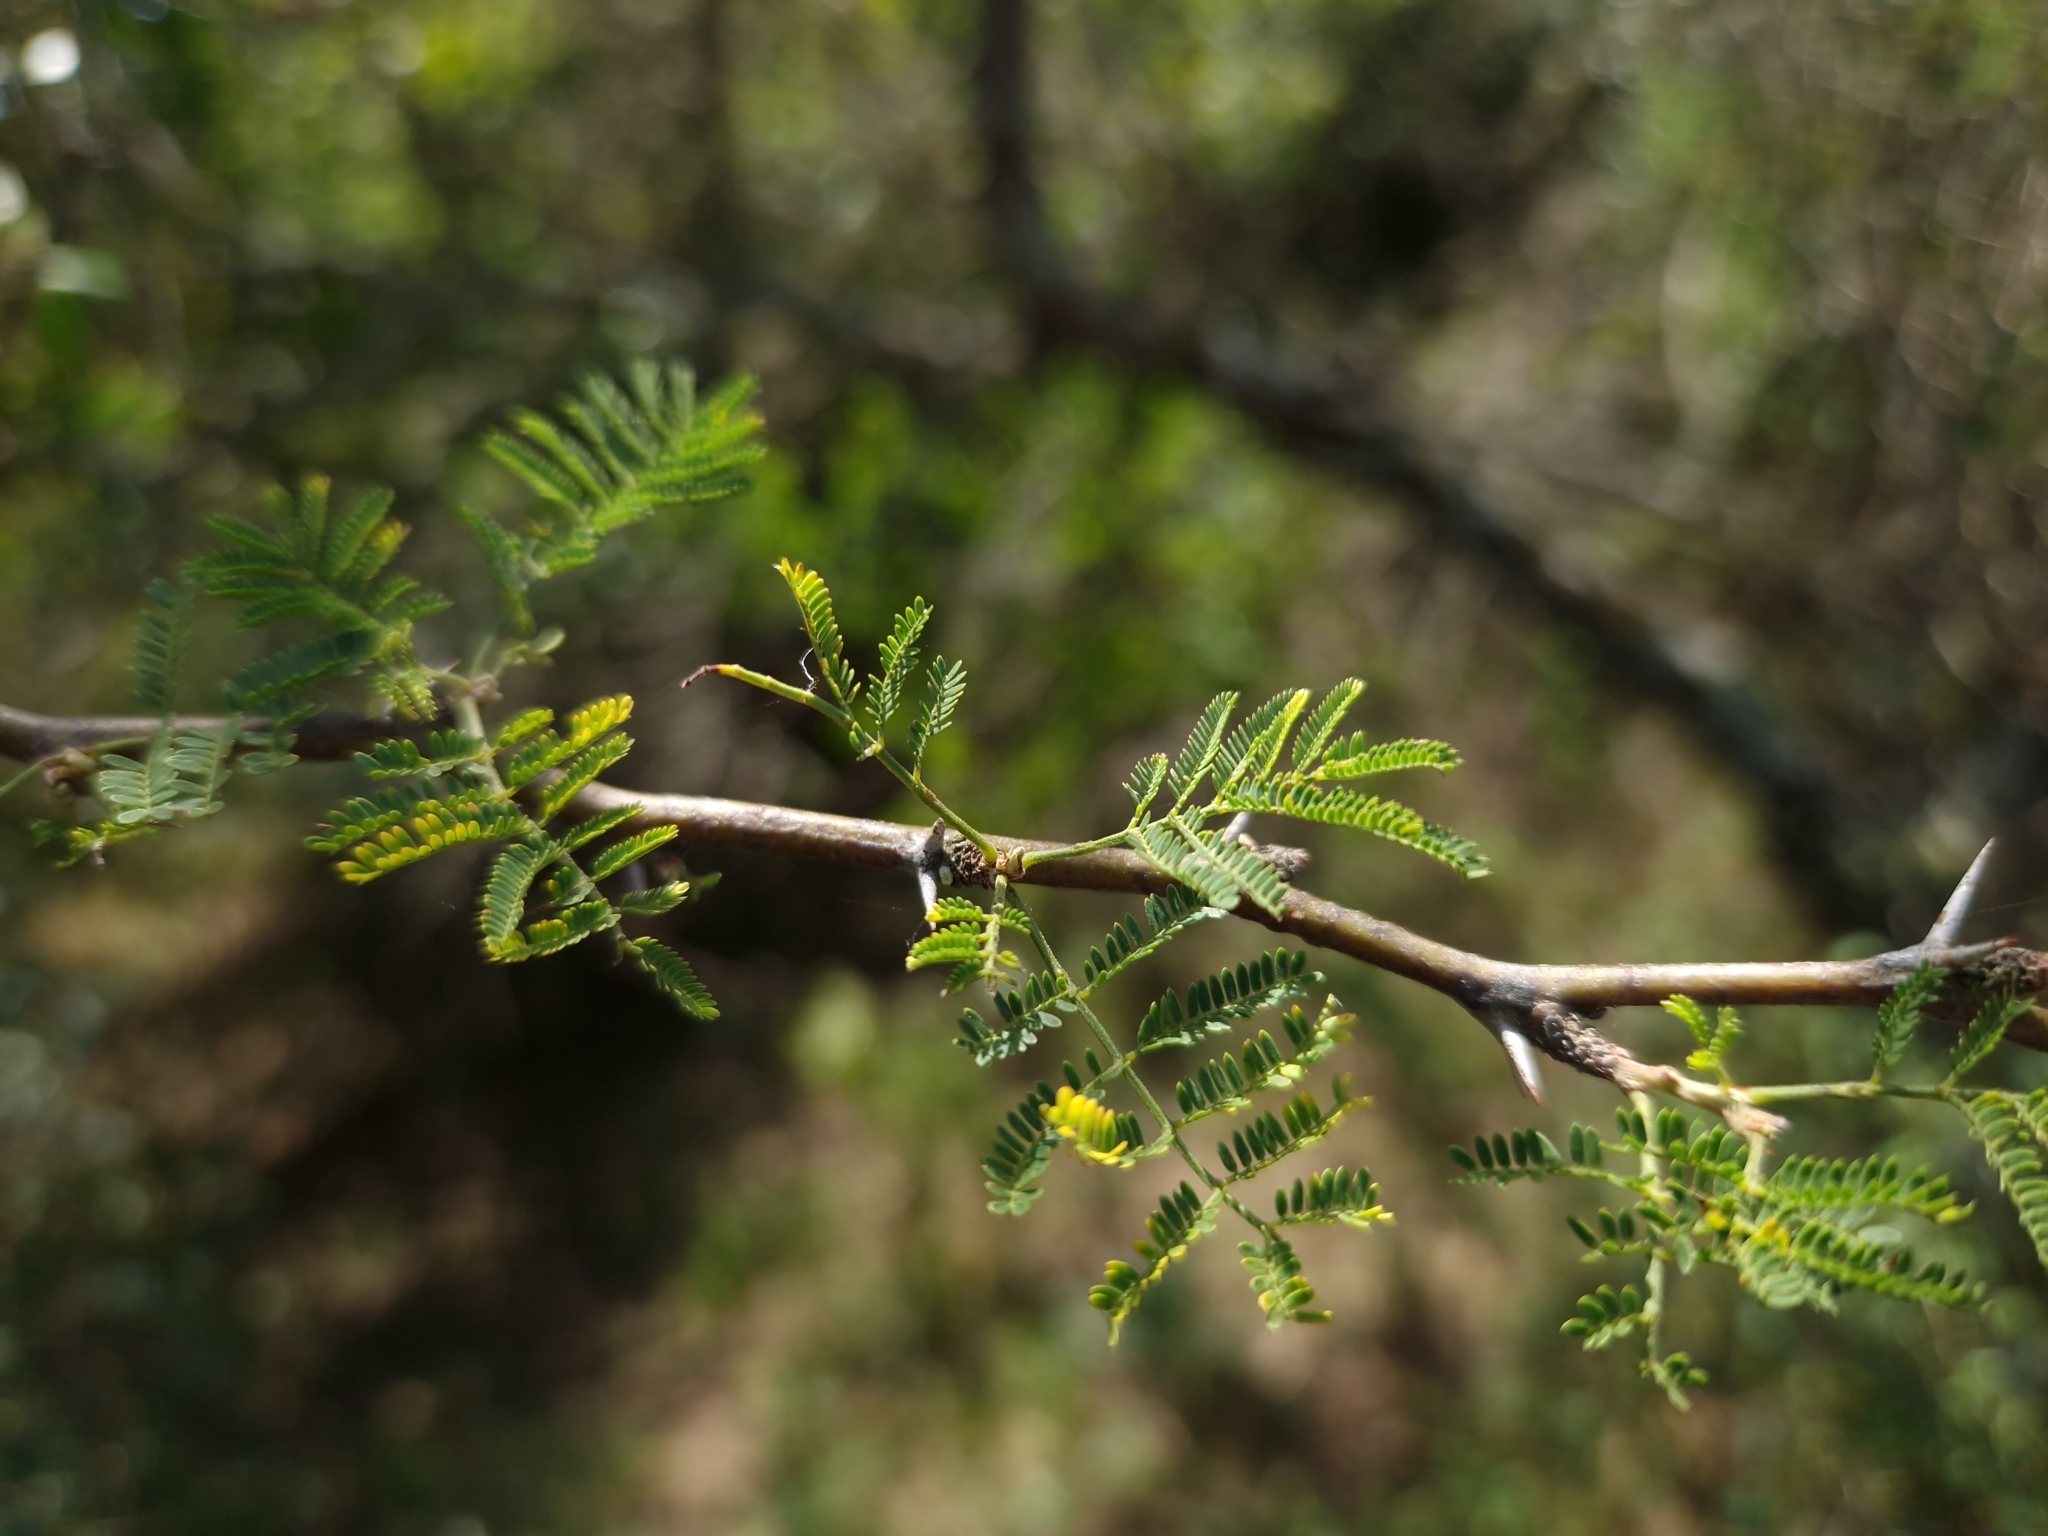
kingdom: Plantae
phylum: Tracheophyta
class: Magnoliopsida
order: Fabales
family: Fabaceae
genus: Vachellia
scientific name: Vachellia caven
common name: Roman cassie
